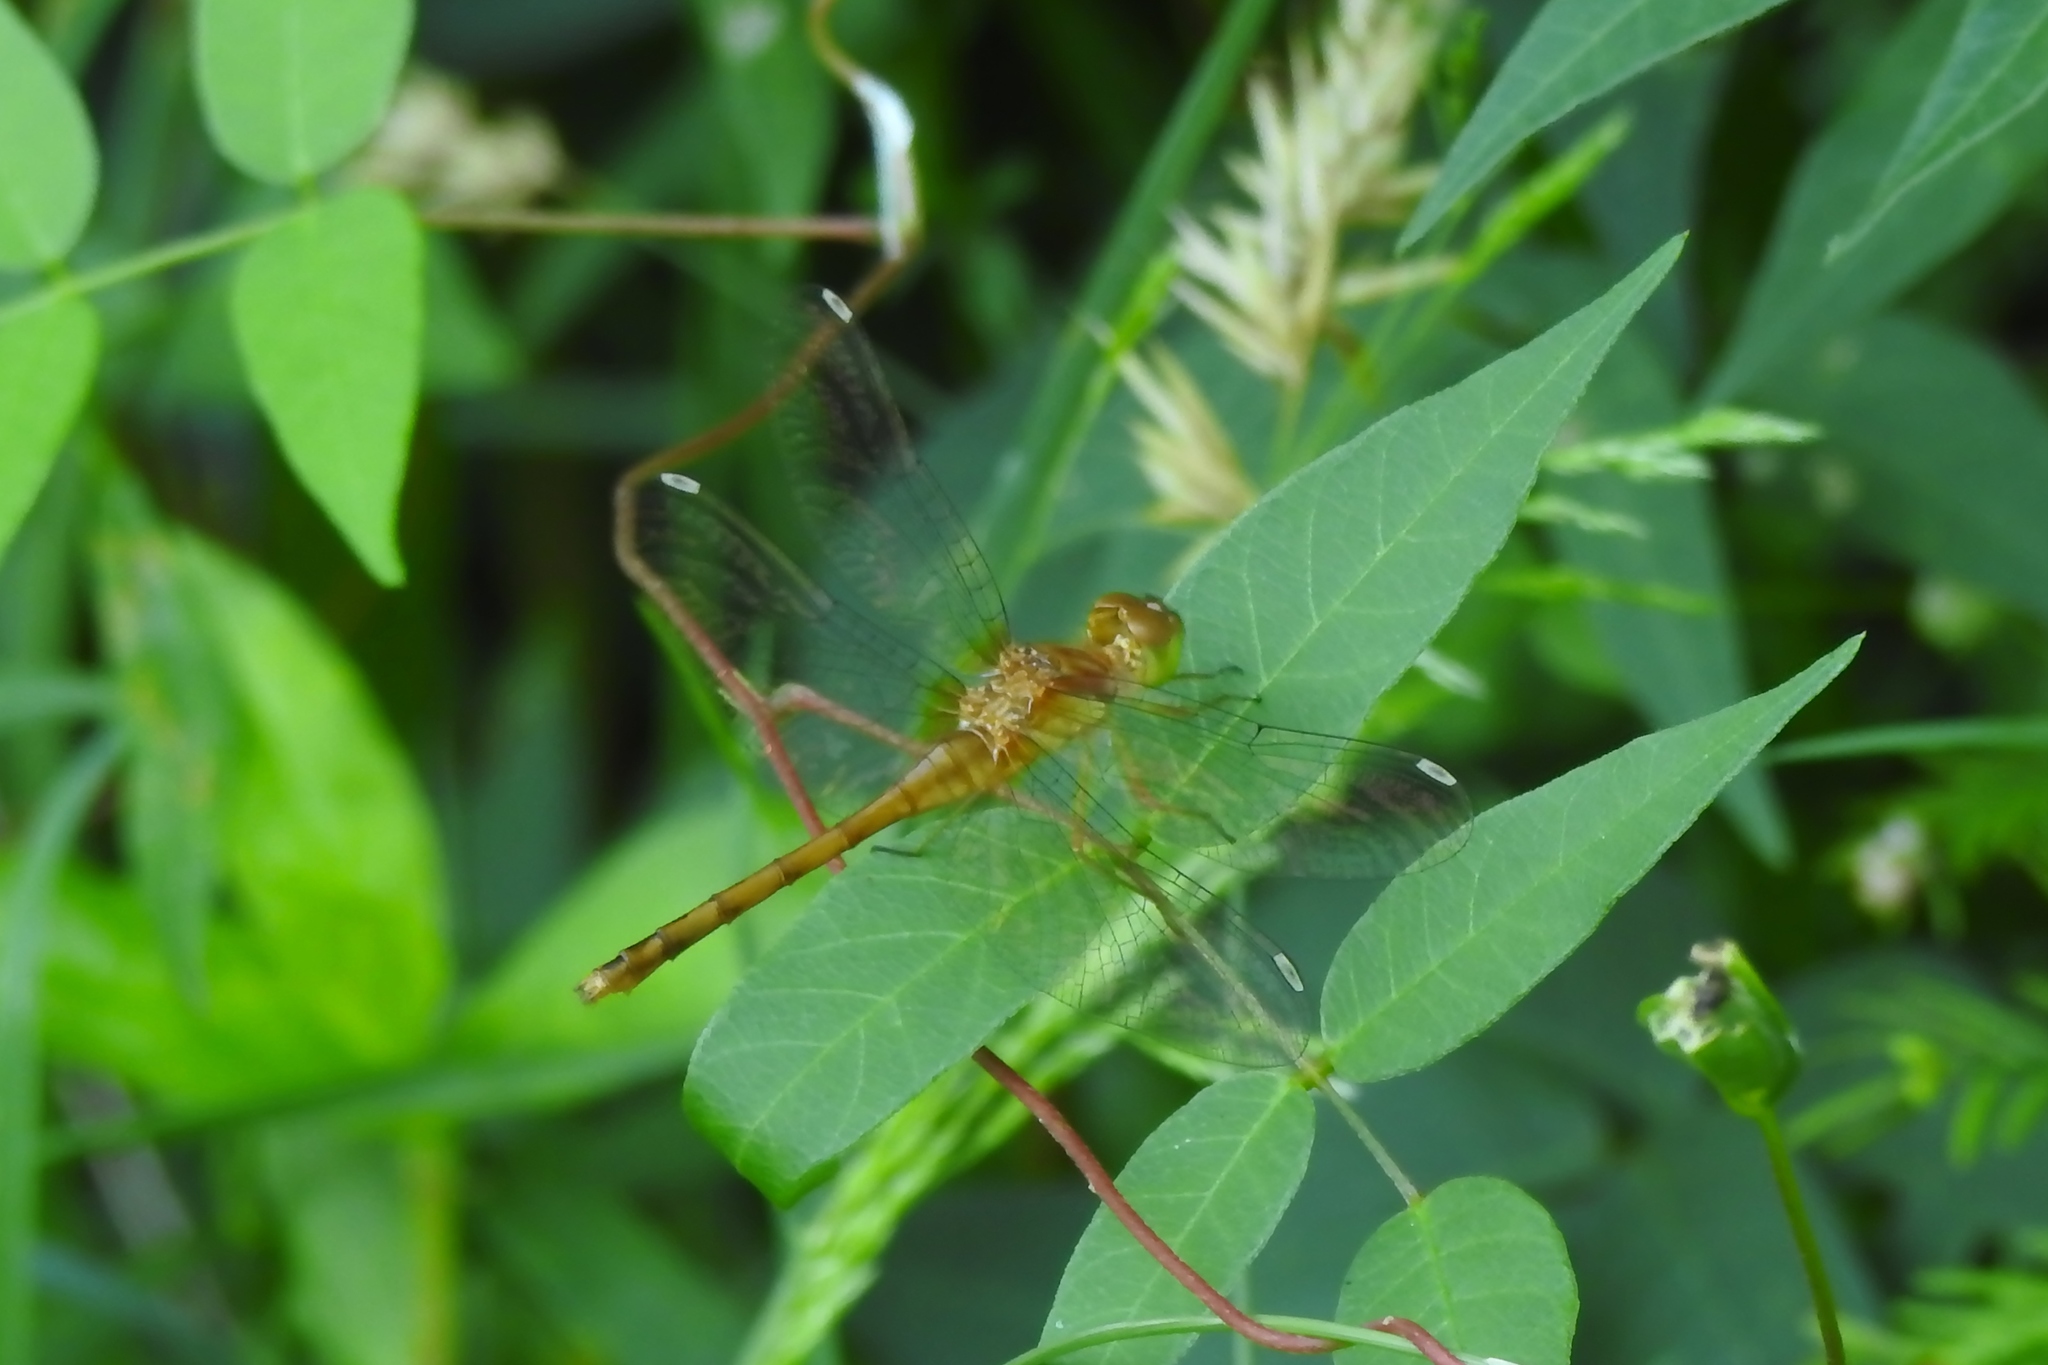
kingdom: Animalia
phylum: Arthropoda
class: Insecta
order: Odonata
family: Libellulidae
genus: Sympetrum
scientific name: Sympetrum vicinum
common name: Autumn meadowhawk
